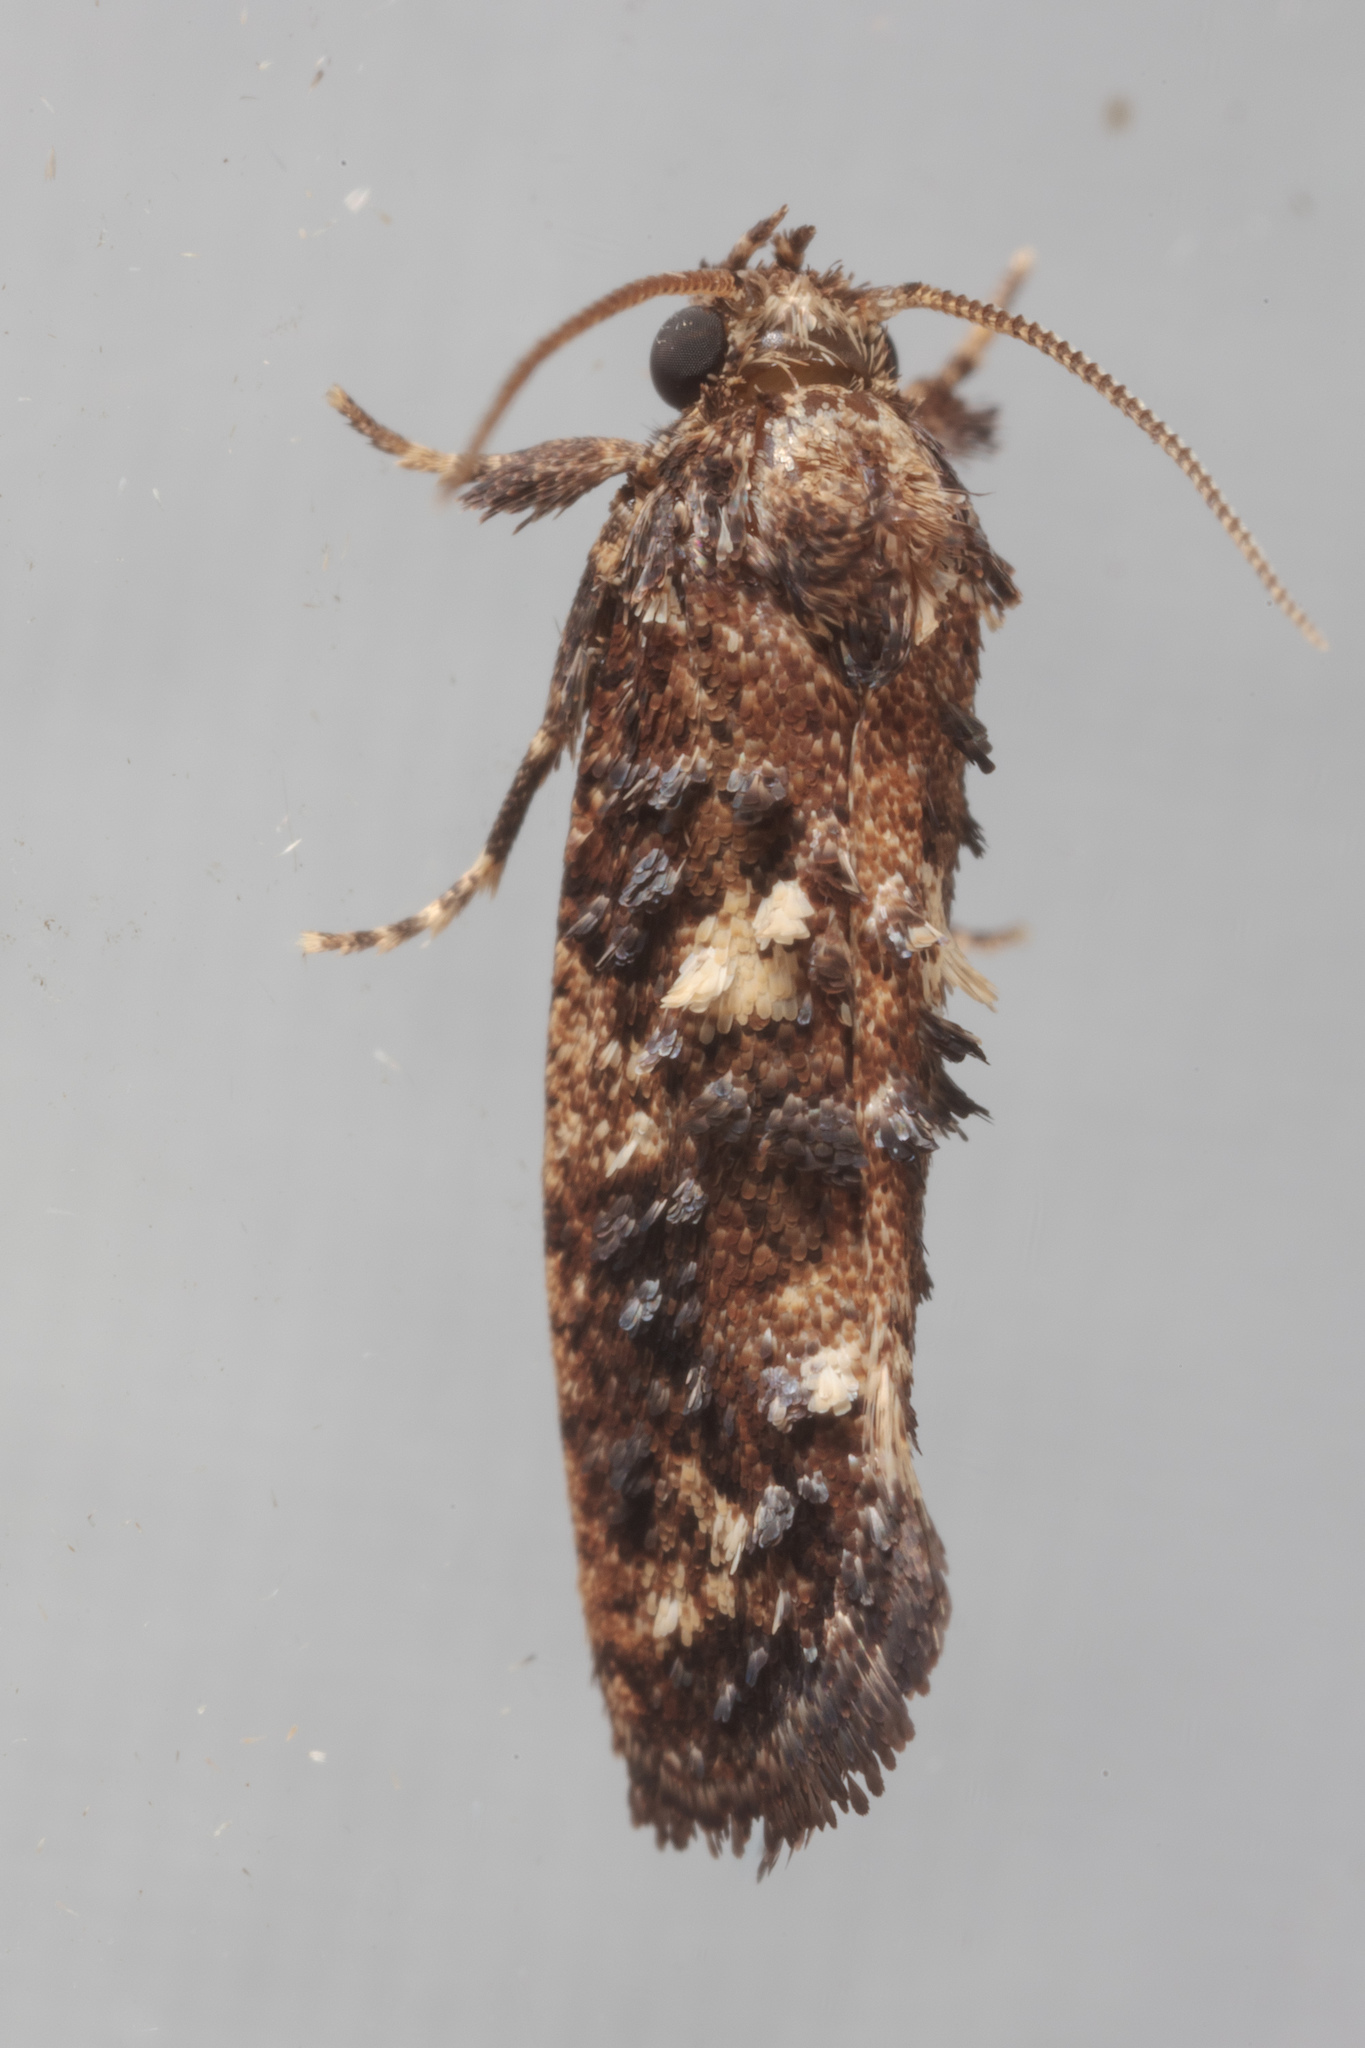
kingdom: Animalia
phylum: Arthropoda
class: Insecta
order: Lepidoptera
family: Tineidae
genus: Acrolophus
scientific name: Acrolophus cressoni
